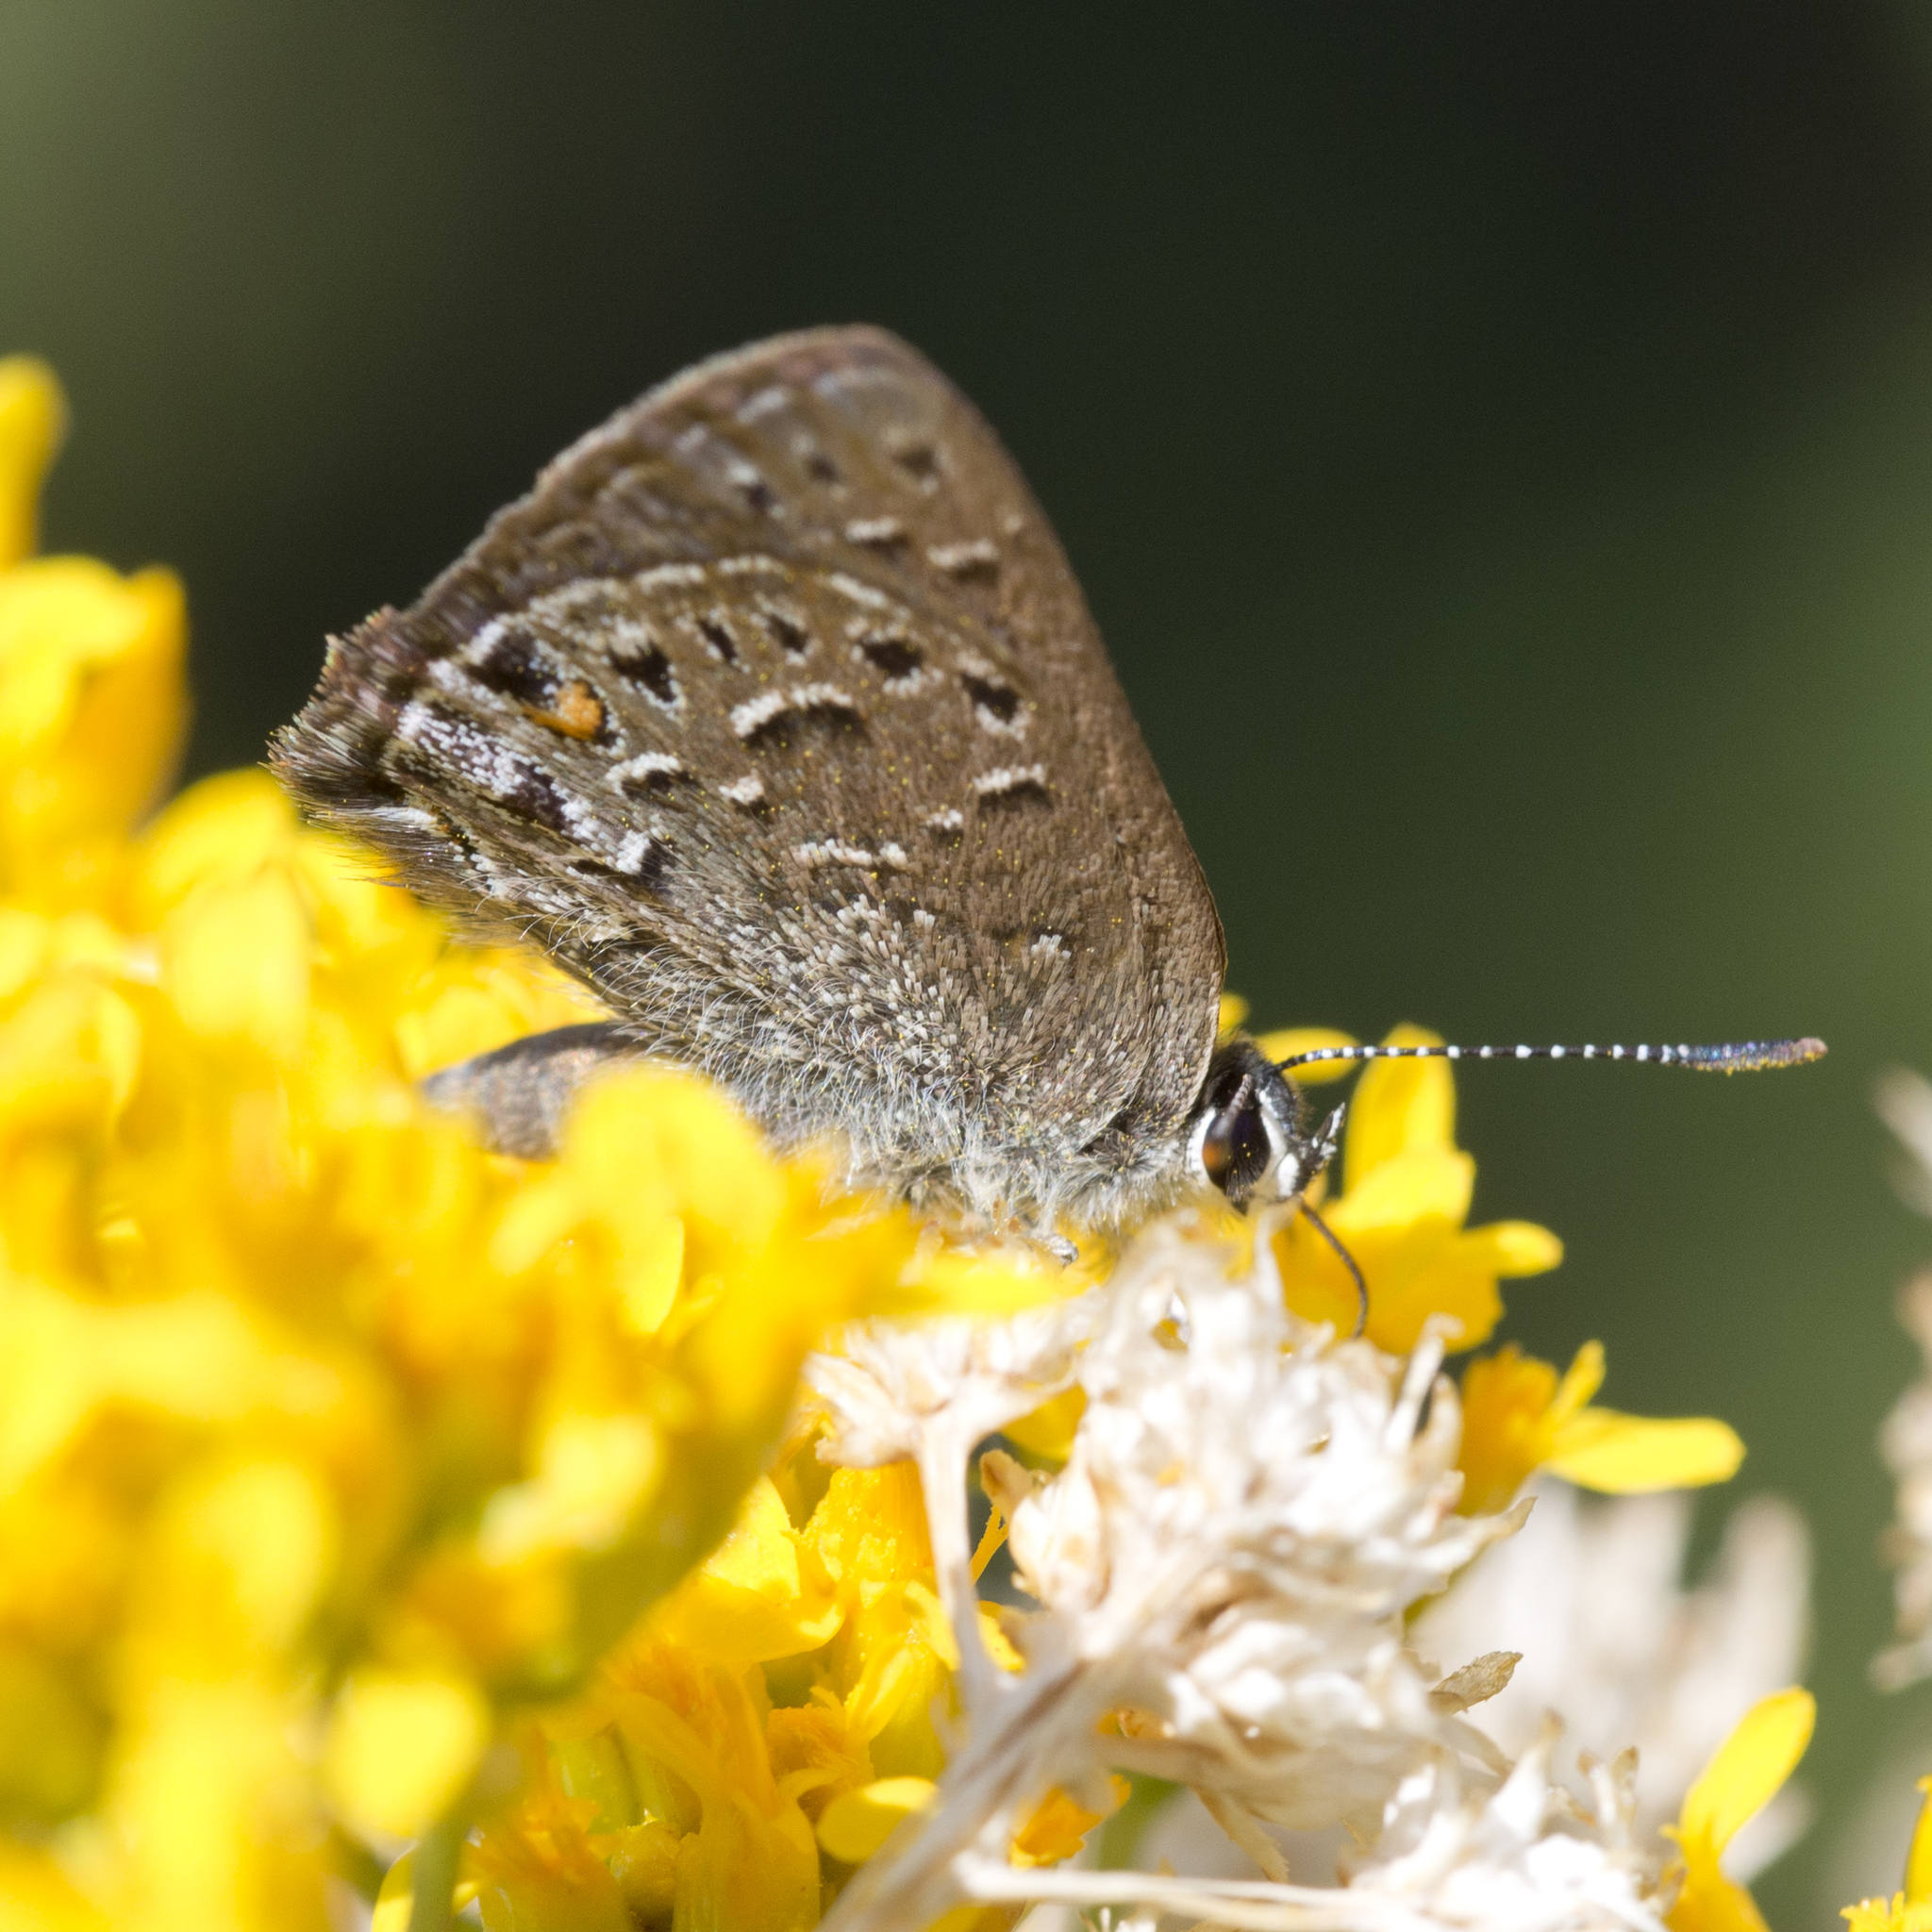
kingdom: Animalia
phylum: Arthropoda
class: Insecta
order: Lepidoptera
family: Lycaenidae
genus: Satyrium
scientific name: Satyrium behrii
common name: Behr's hairstreak
